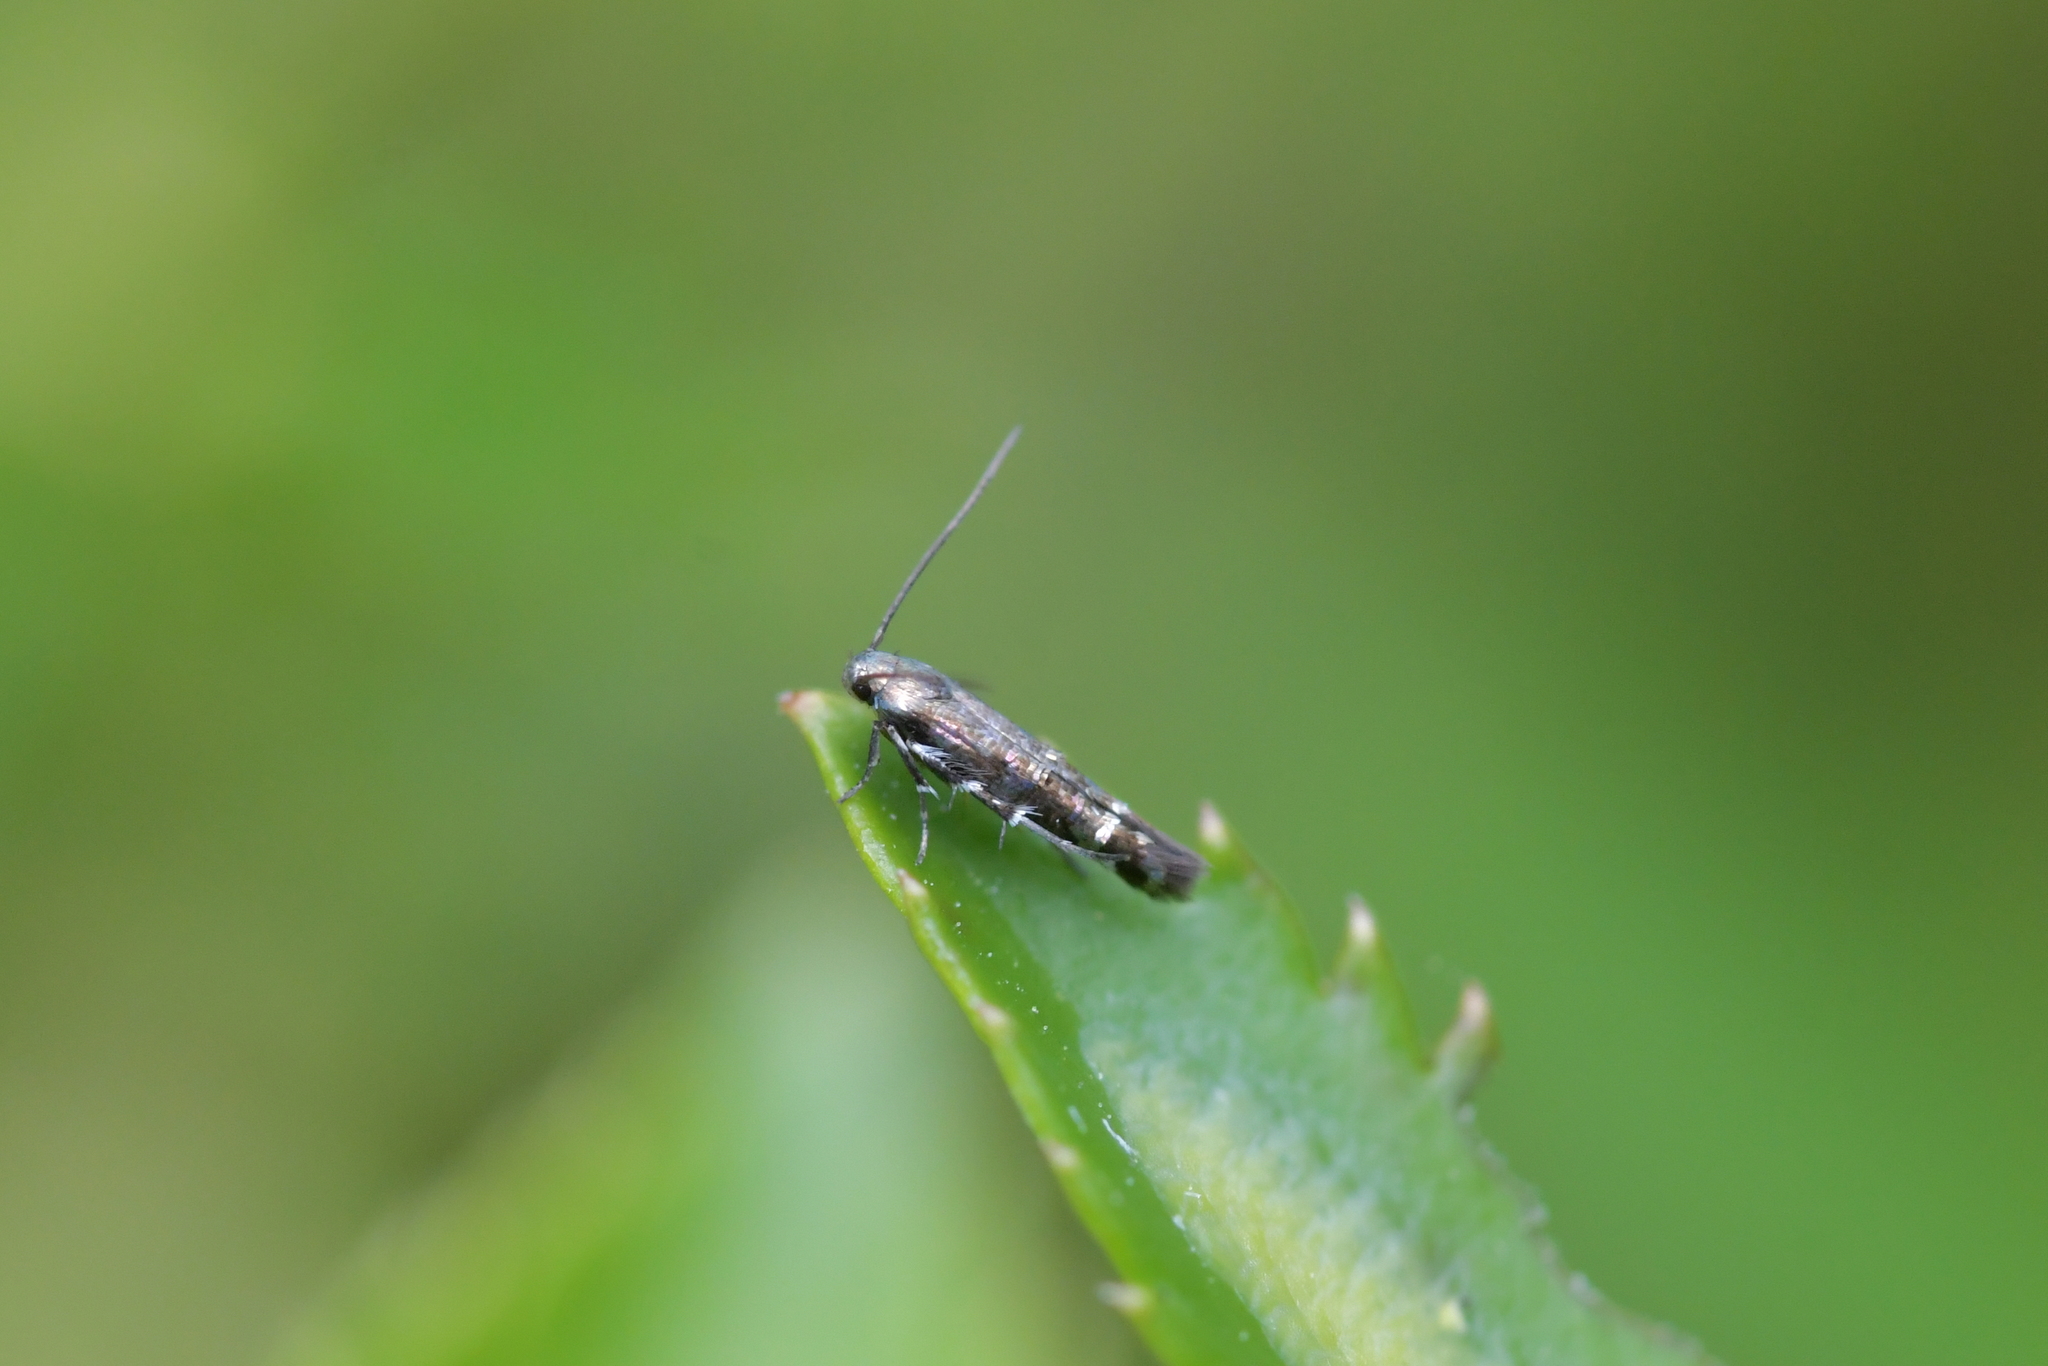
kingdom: Animalia
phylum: Arthropoda
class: Insecta
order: Lepidoptera
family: Momphidae
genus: Zapyrastra
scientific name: Zapyrastra
